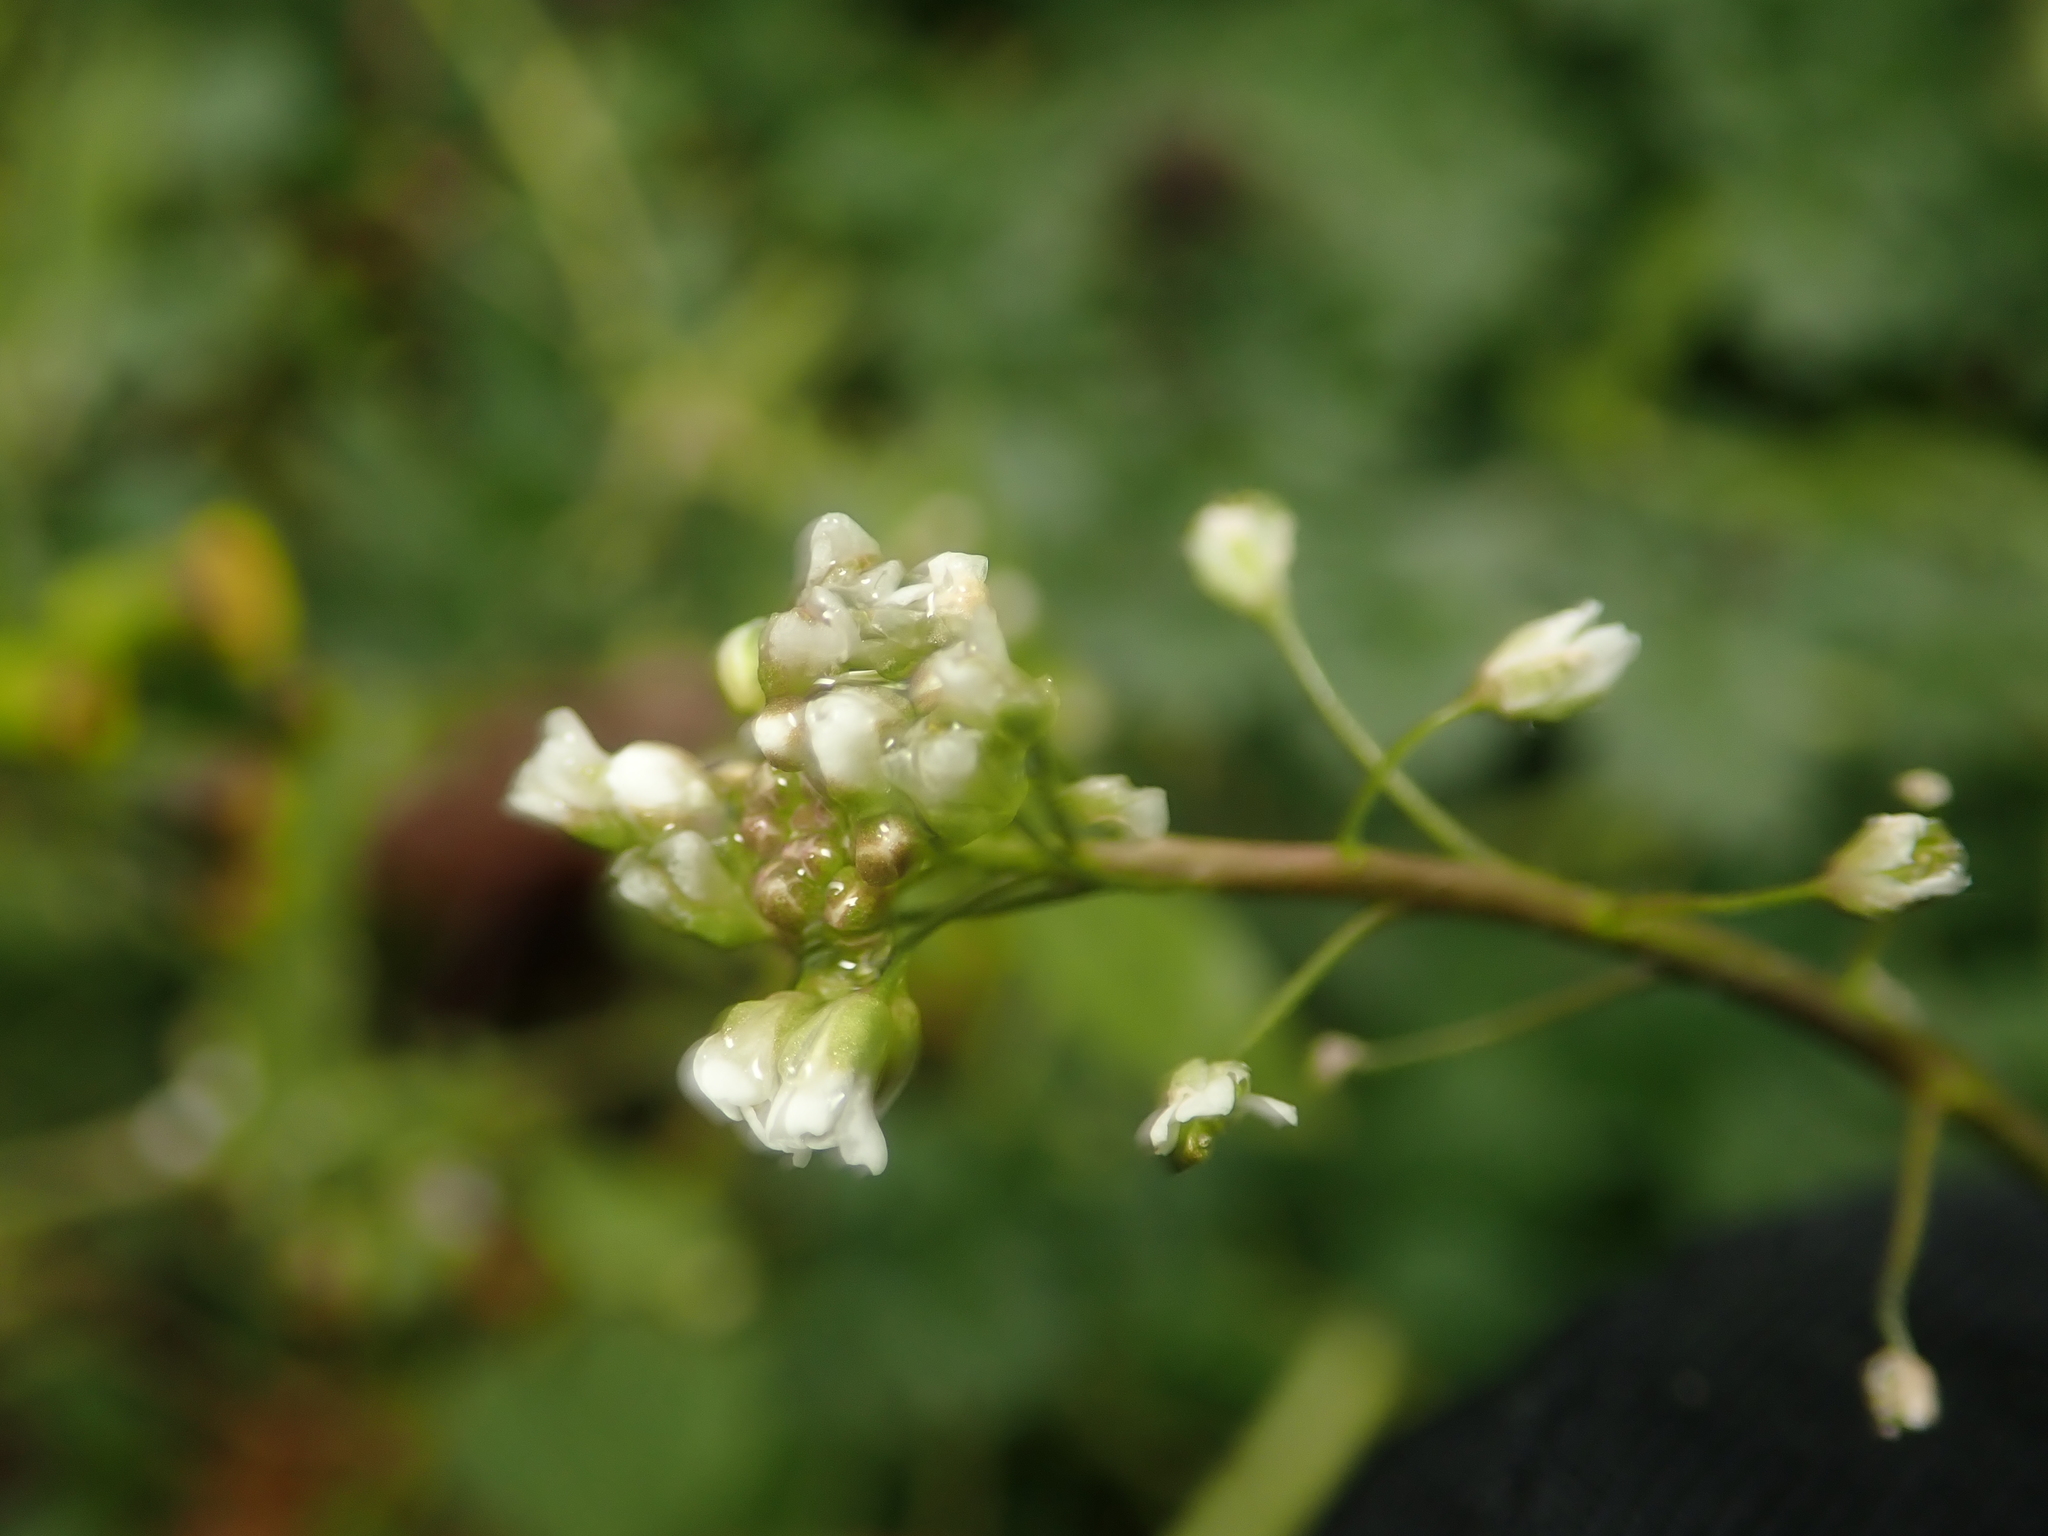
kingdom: Plantae
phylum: Tracheophyta
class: Magnoliopsida
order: Brassicales
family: Brassicaceae
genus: Capsella
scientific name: Capsella bursa-pastoris
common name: Shepherd's purse
